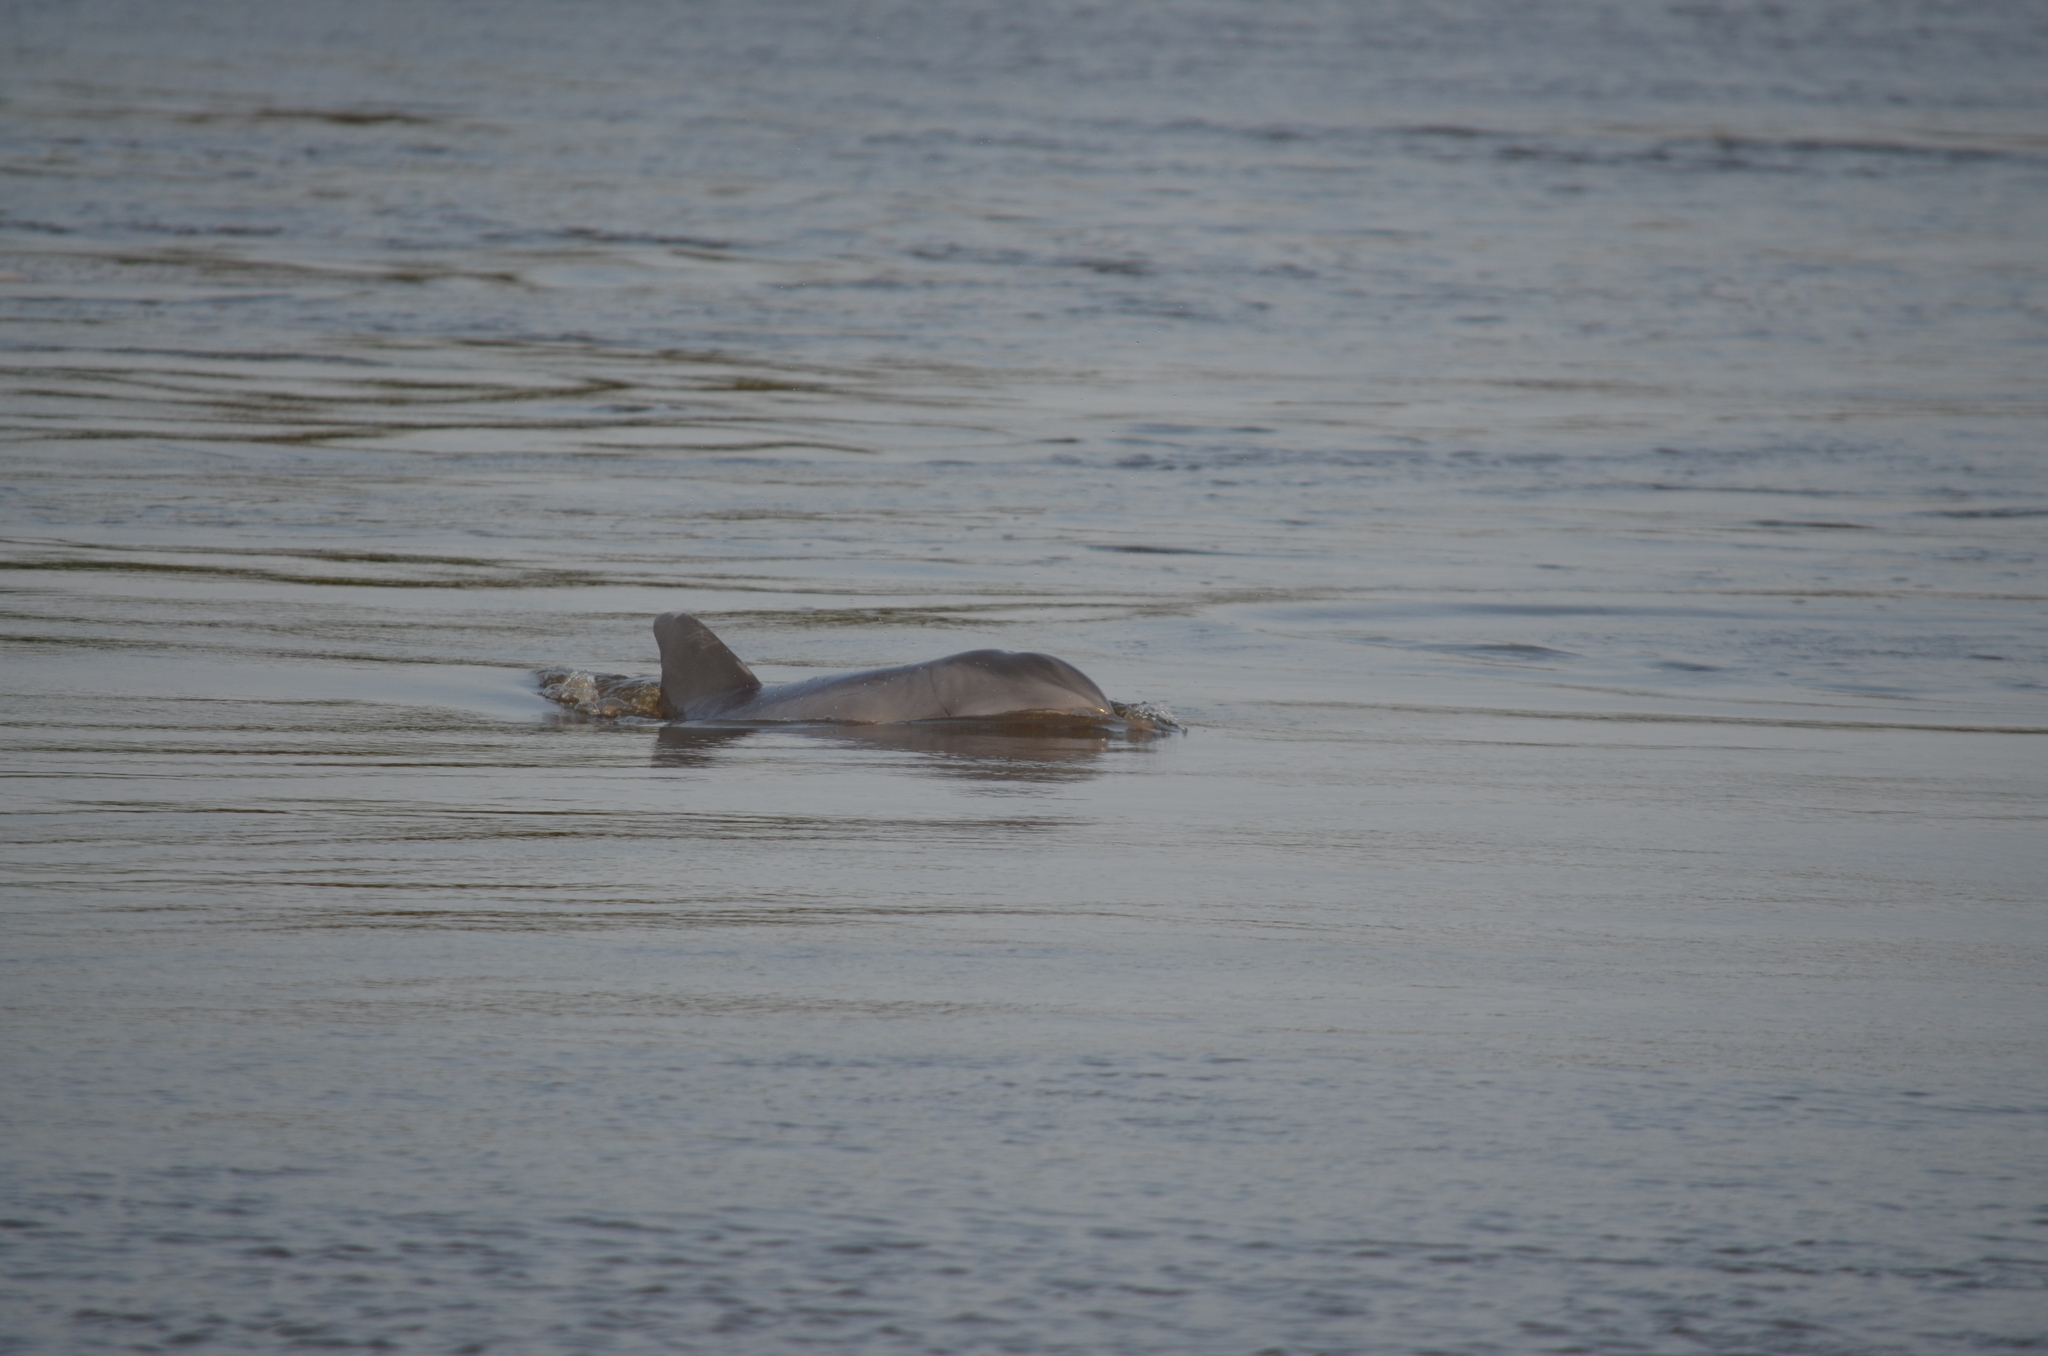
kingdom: Animalia
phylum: Chordata
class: Mammalia
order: Cetacea
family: Delphinidae
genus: Tursiops
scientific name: Tursiops truncatus
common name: Bottlenose dolphin
